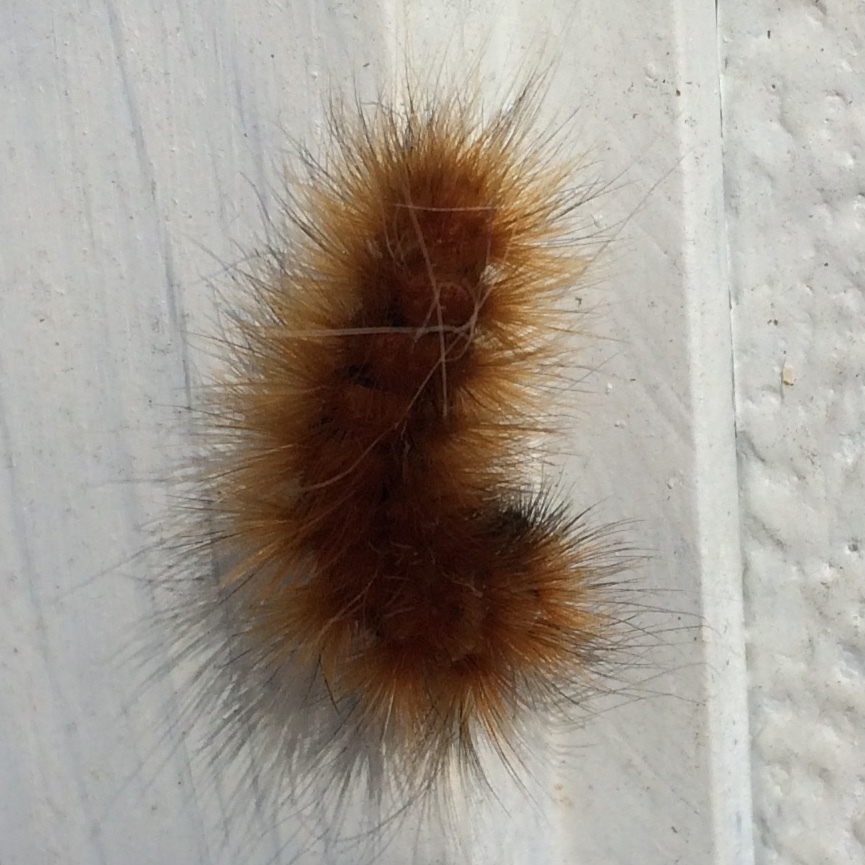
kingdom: Animalia
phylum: Arthropoda
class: Insecta
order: Lepidoptera
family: Erebidae
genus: Spilosoma
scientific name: Spilosoma virginica
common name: Virginia tiger moth
